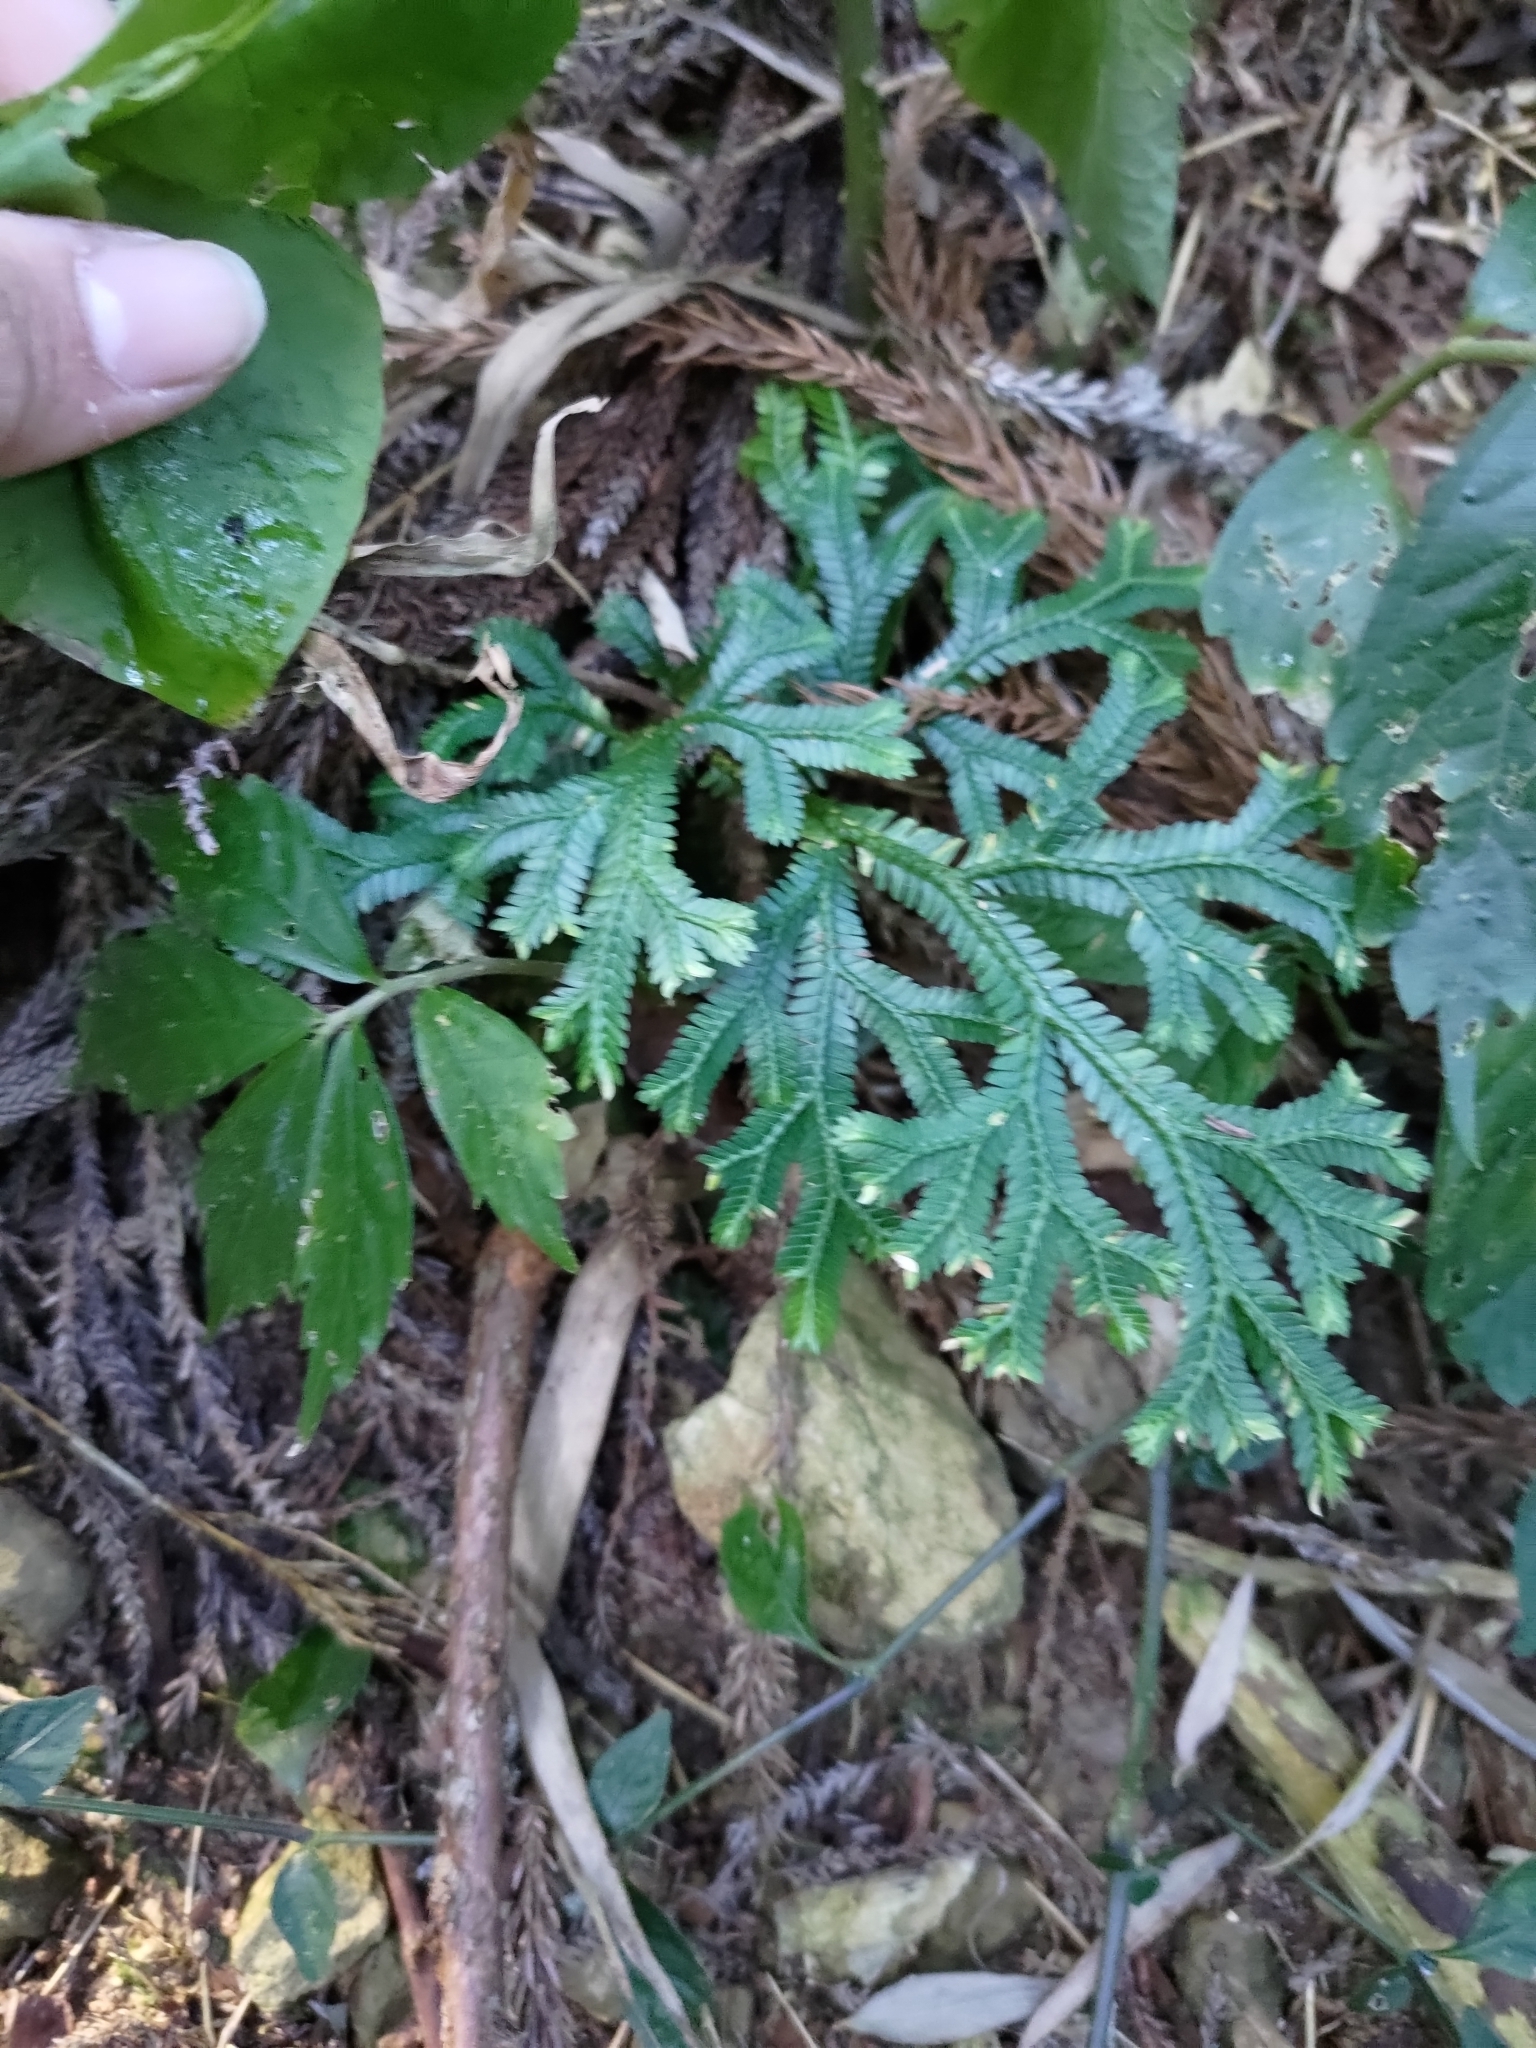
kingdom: Plantae
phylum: Tracheophyta
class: Lycopodiopsida
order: Selaginellales
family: Selaginellaceae
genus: Selaginella
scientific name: Selaginella doederleinii
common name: Greater selaginella
